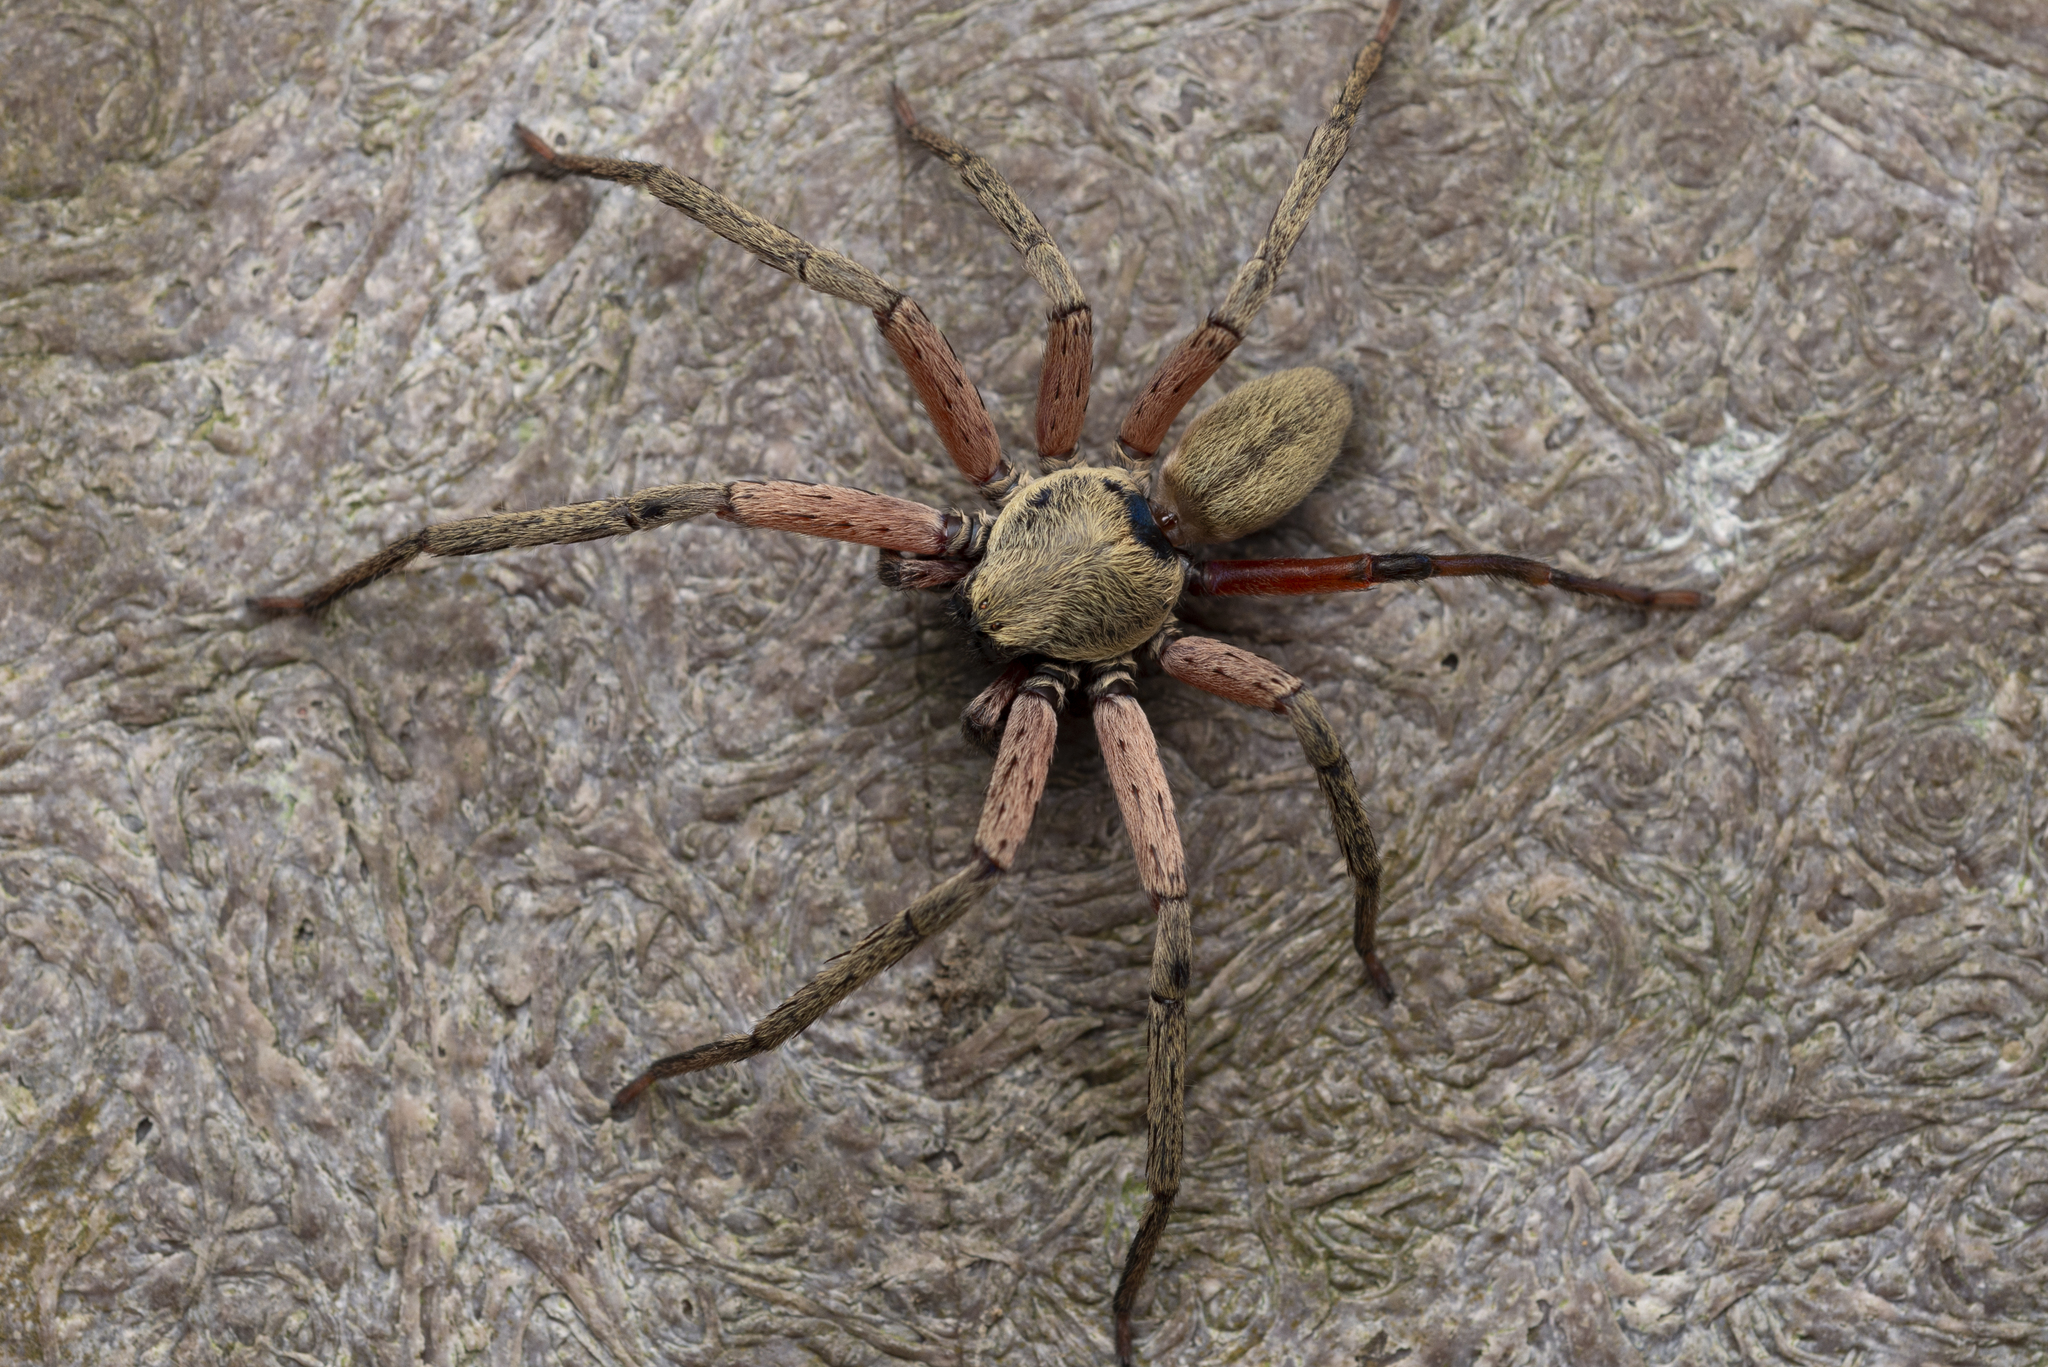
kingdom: Animalia
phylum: Arthropoda
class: Arachnida
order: Araneae
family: Sparassidae
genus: Thelcticopis
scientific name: Thelcticopis severa
